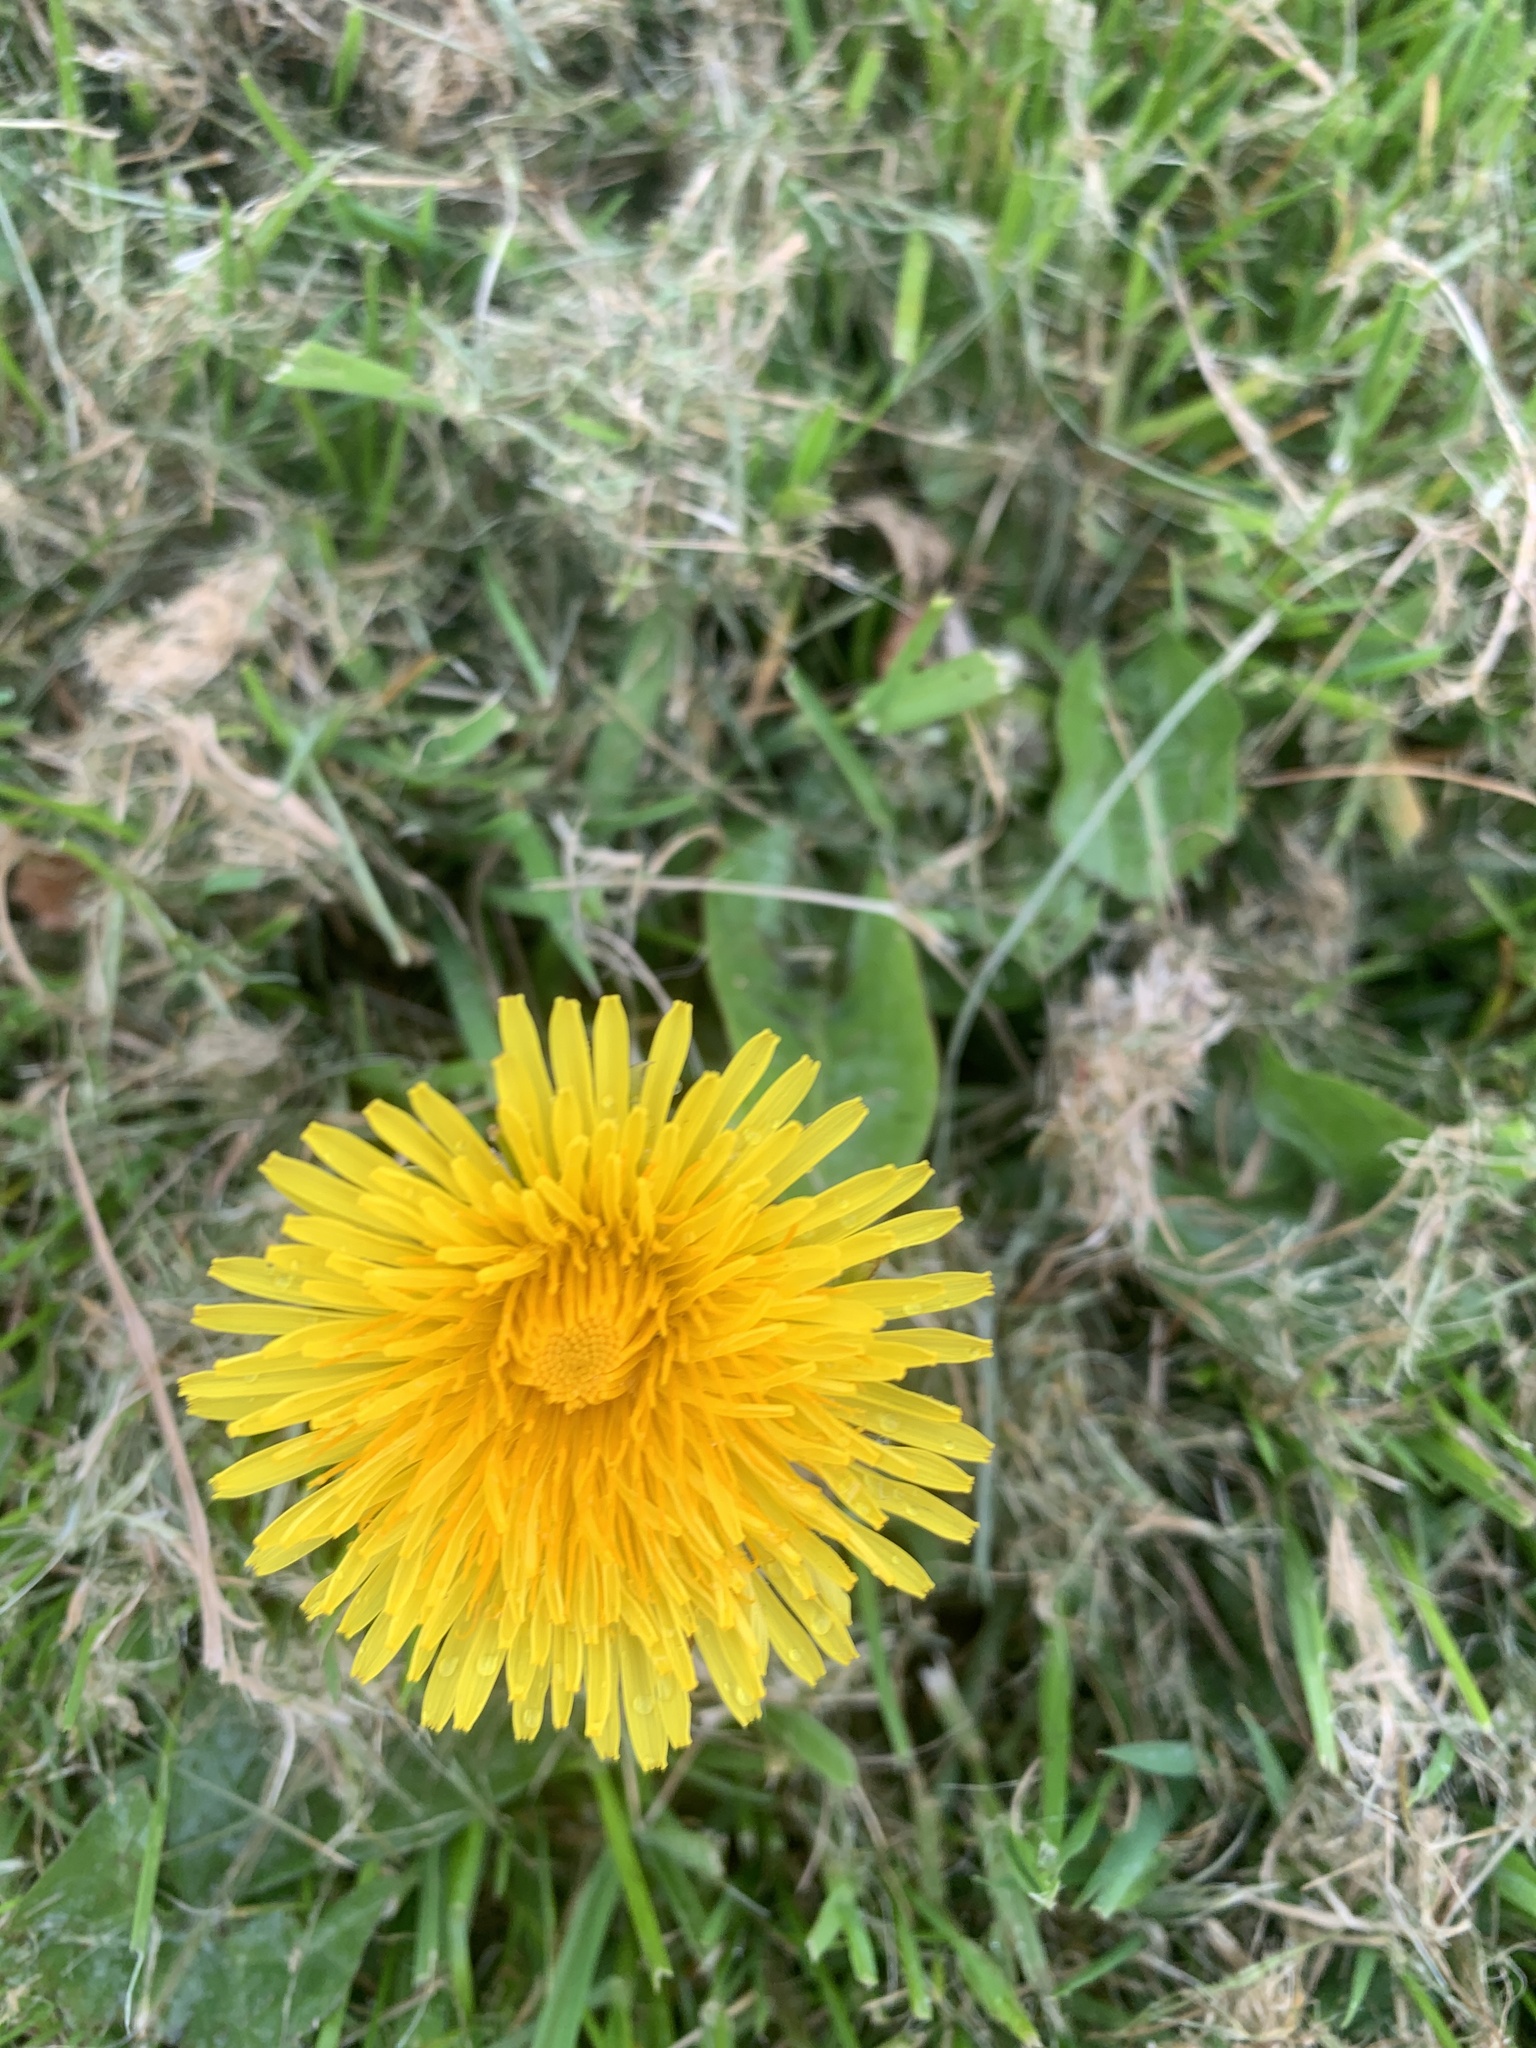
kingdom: Plantae
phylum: Tracheophyta
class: Magnoliopsida
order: Asterales
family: Asteraceae
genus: Taraxacum
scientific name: Taraxacum officinale
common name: Common dandelion
